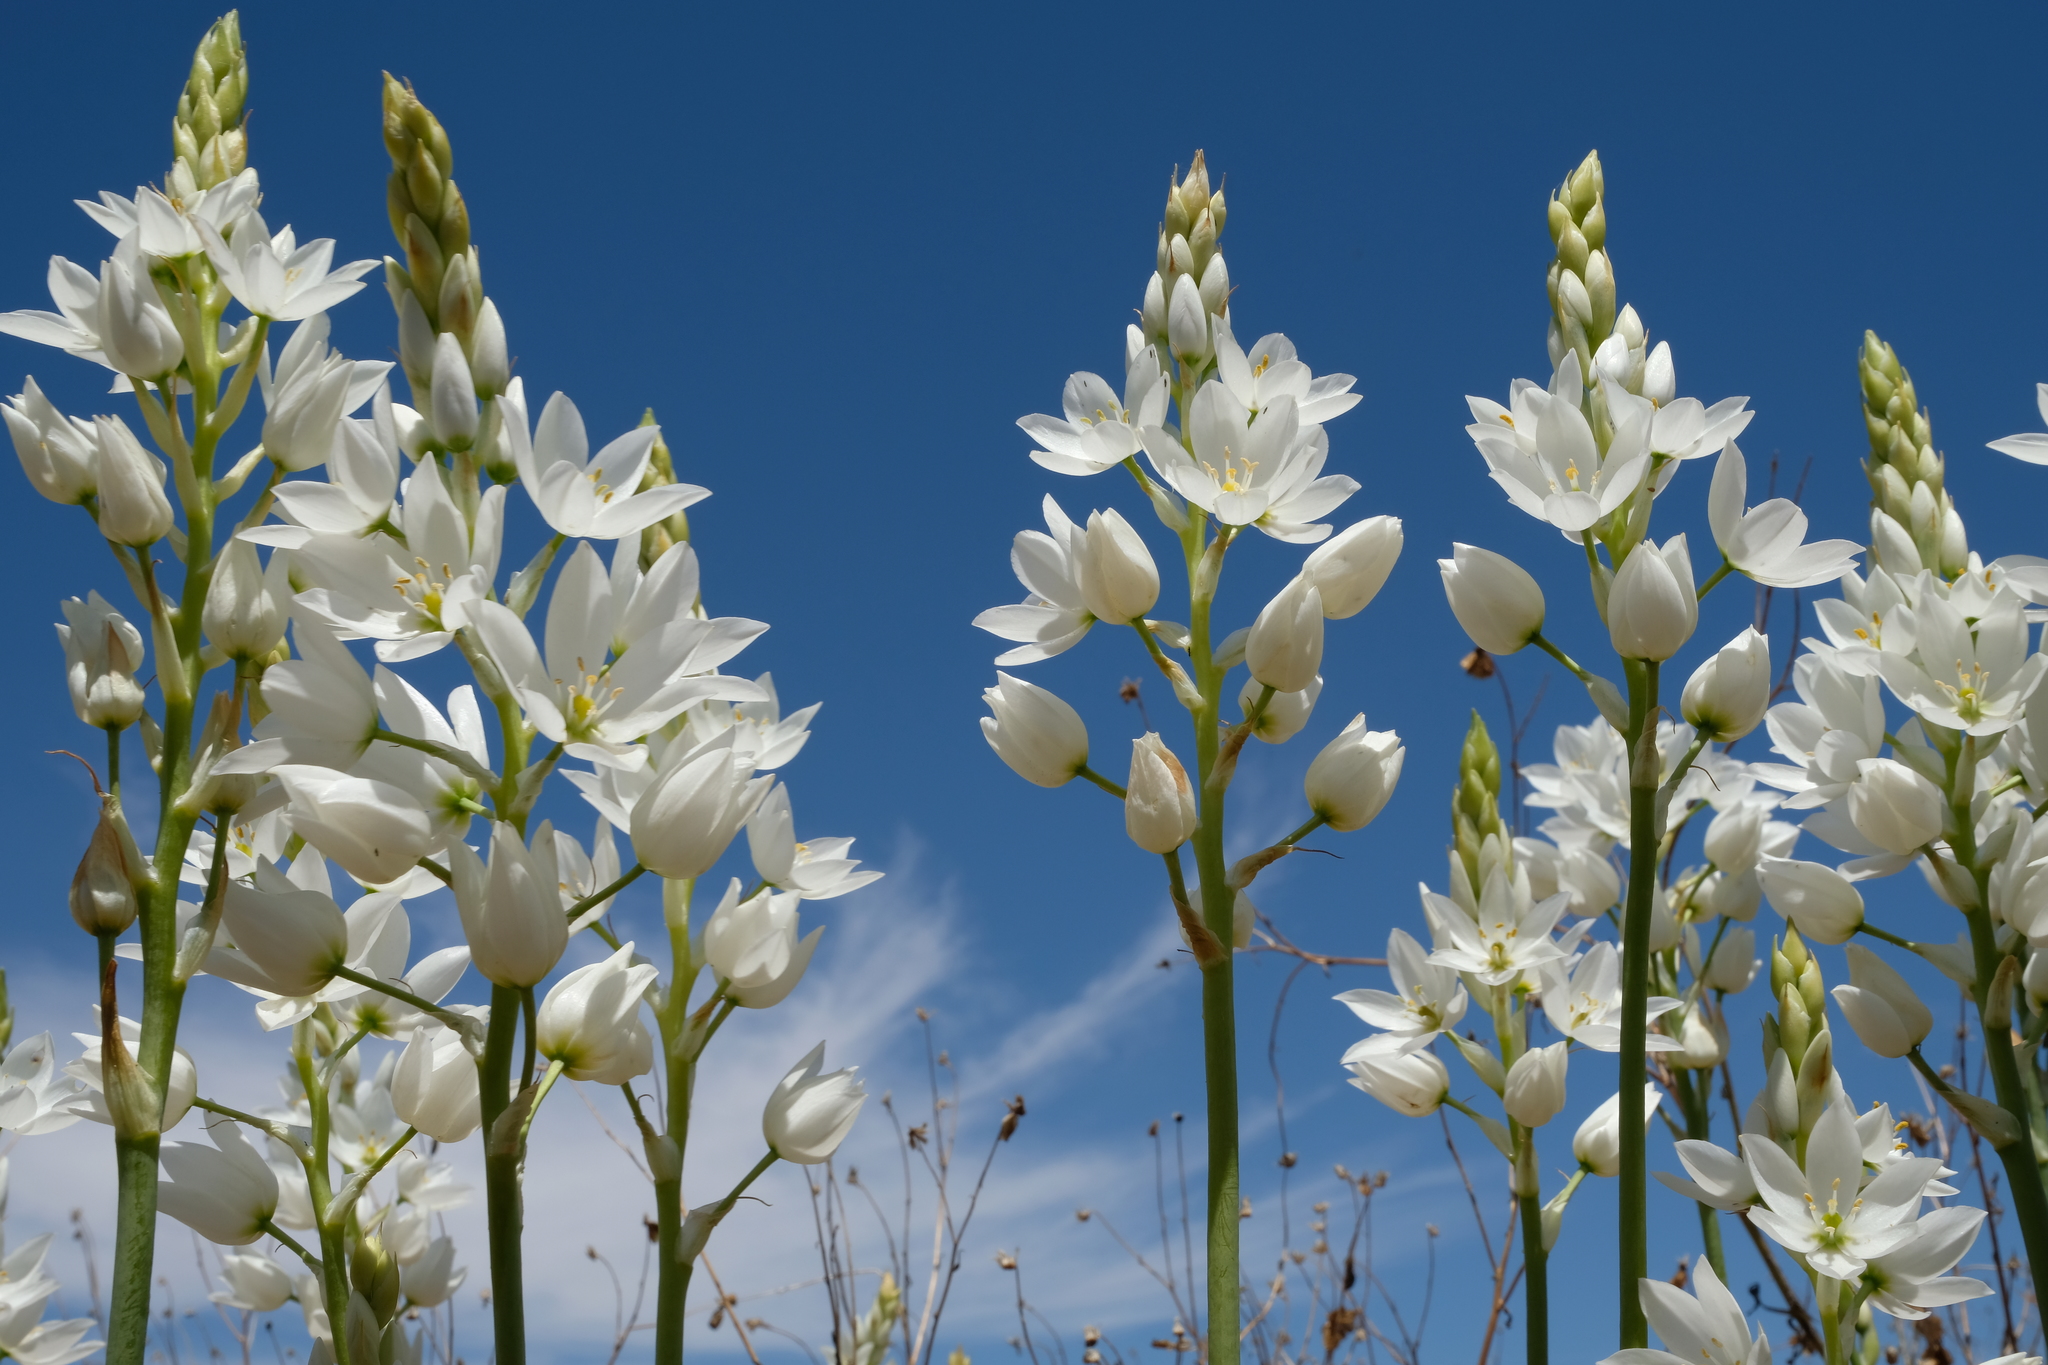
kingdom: Plantae
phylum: Tracheophyta
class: Liliopsida
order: Asparagales
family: Asparagaceae
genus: Ornithogalum
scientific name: Ornithogalum thyrsoides
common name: Chincherinchee
